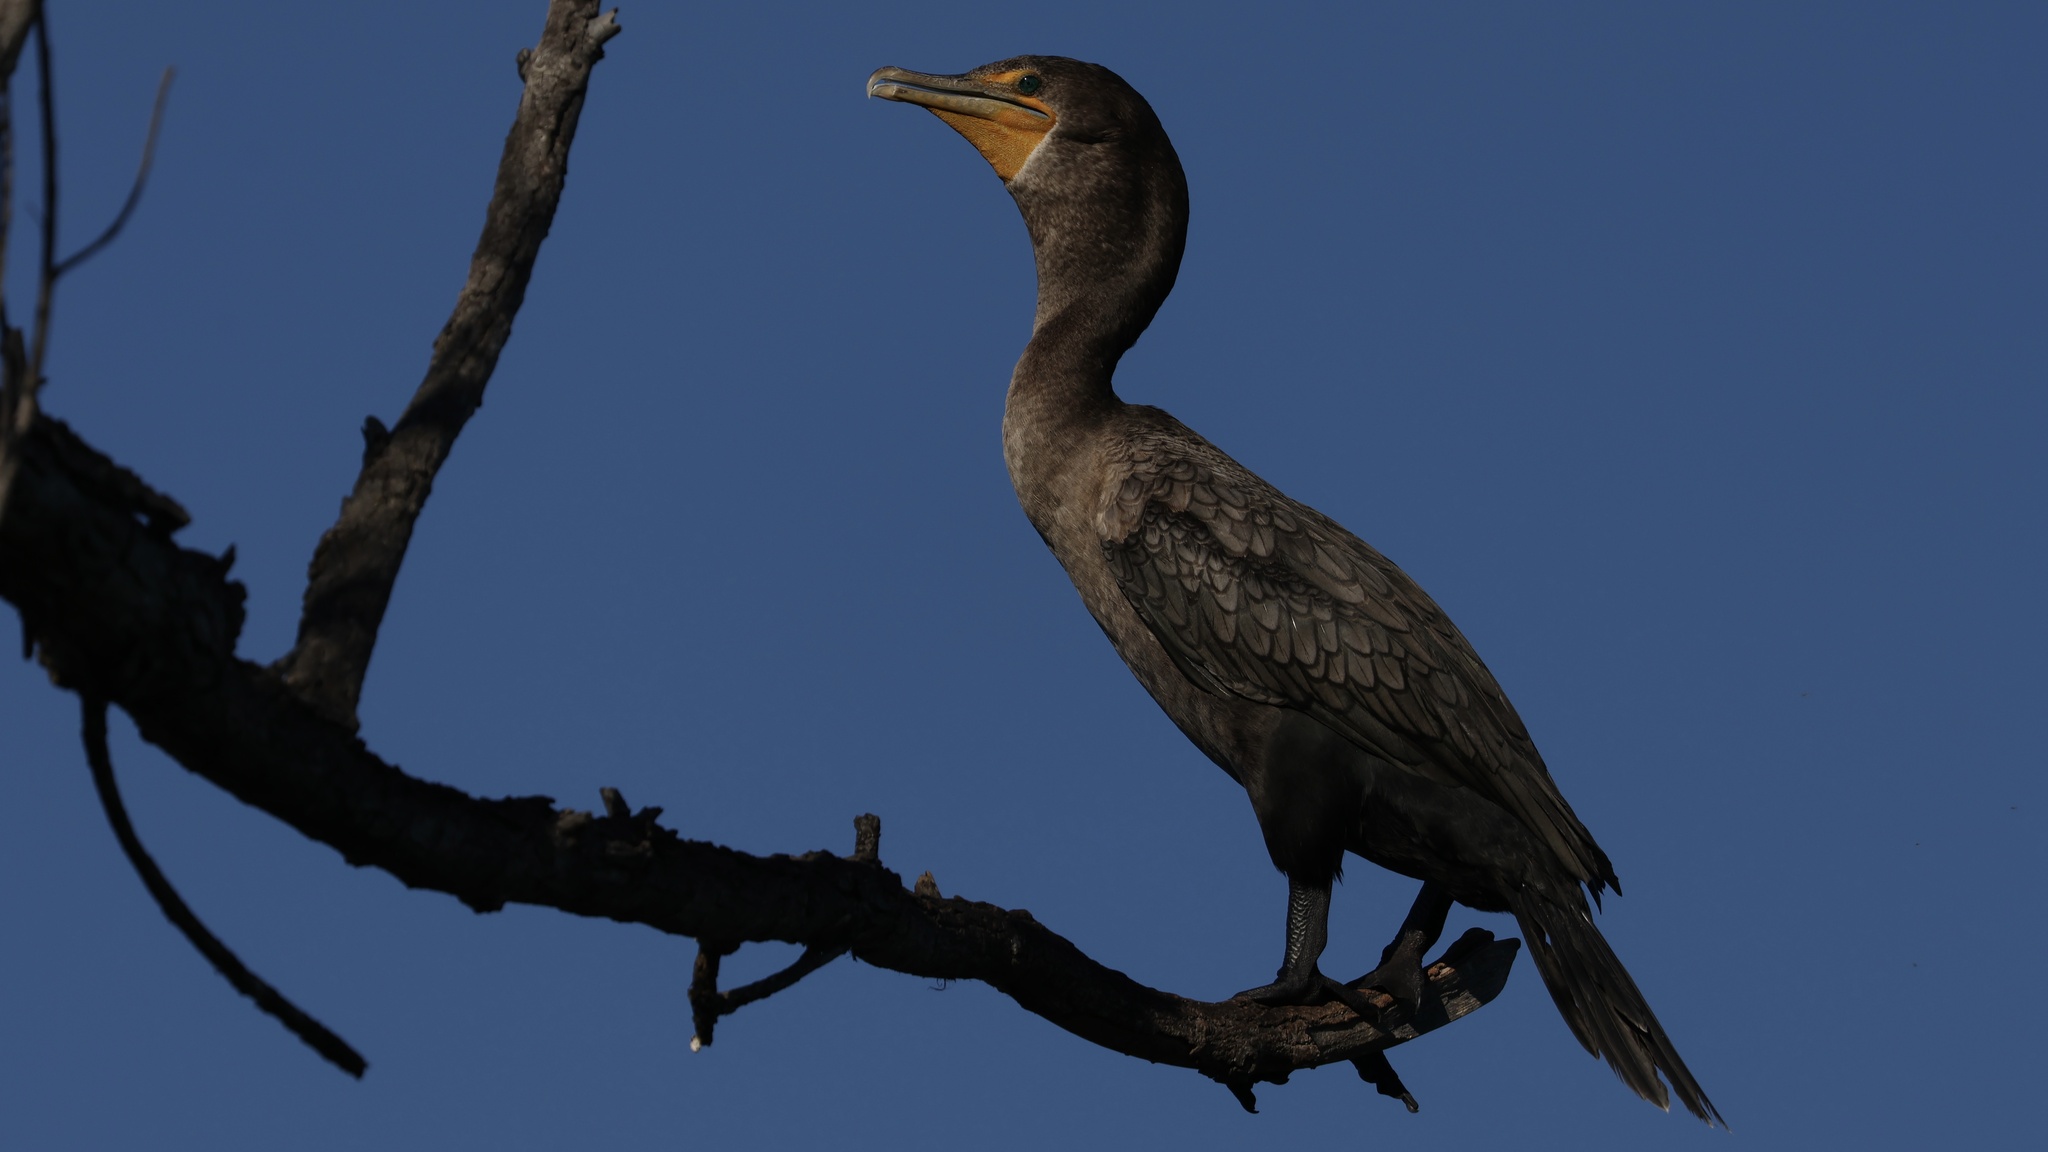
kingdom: Animalia
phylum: Chordata
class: Aves
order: Suliformes
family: Phalacrocoracidae
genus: Phalacrocorax
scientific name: Phalacrocorax auritus
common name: Double-crested cormorant
